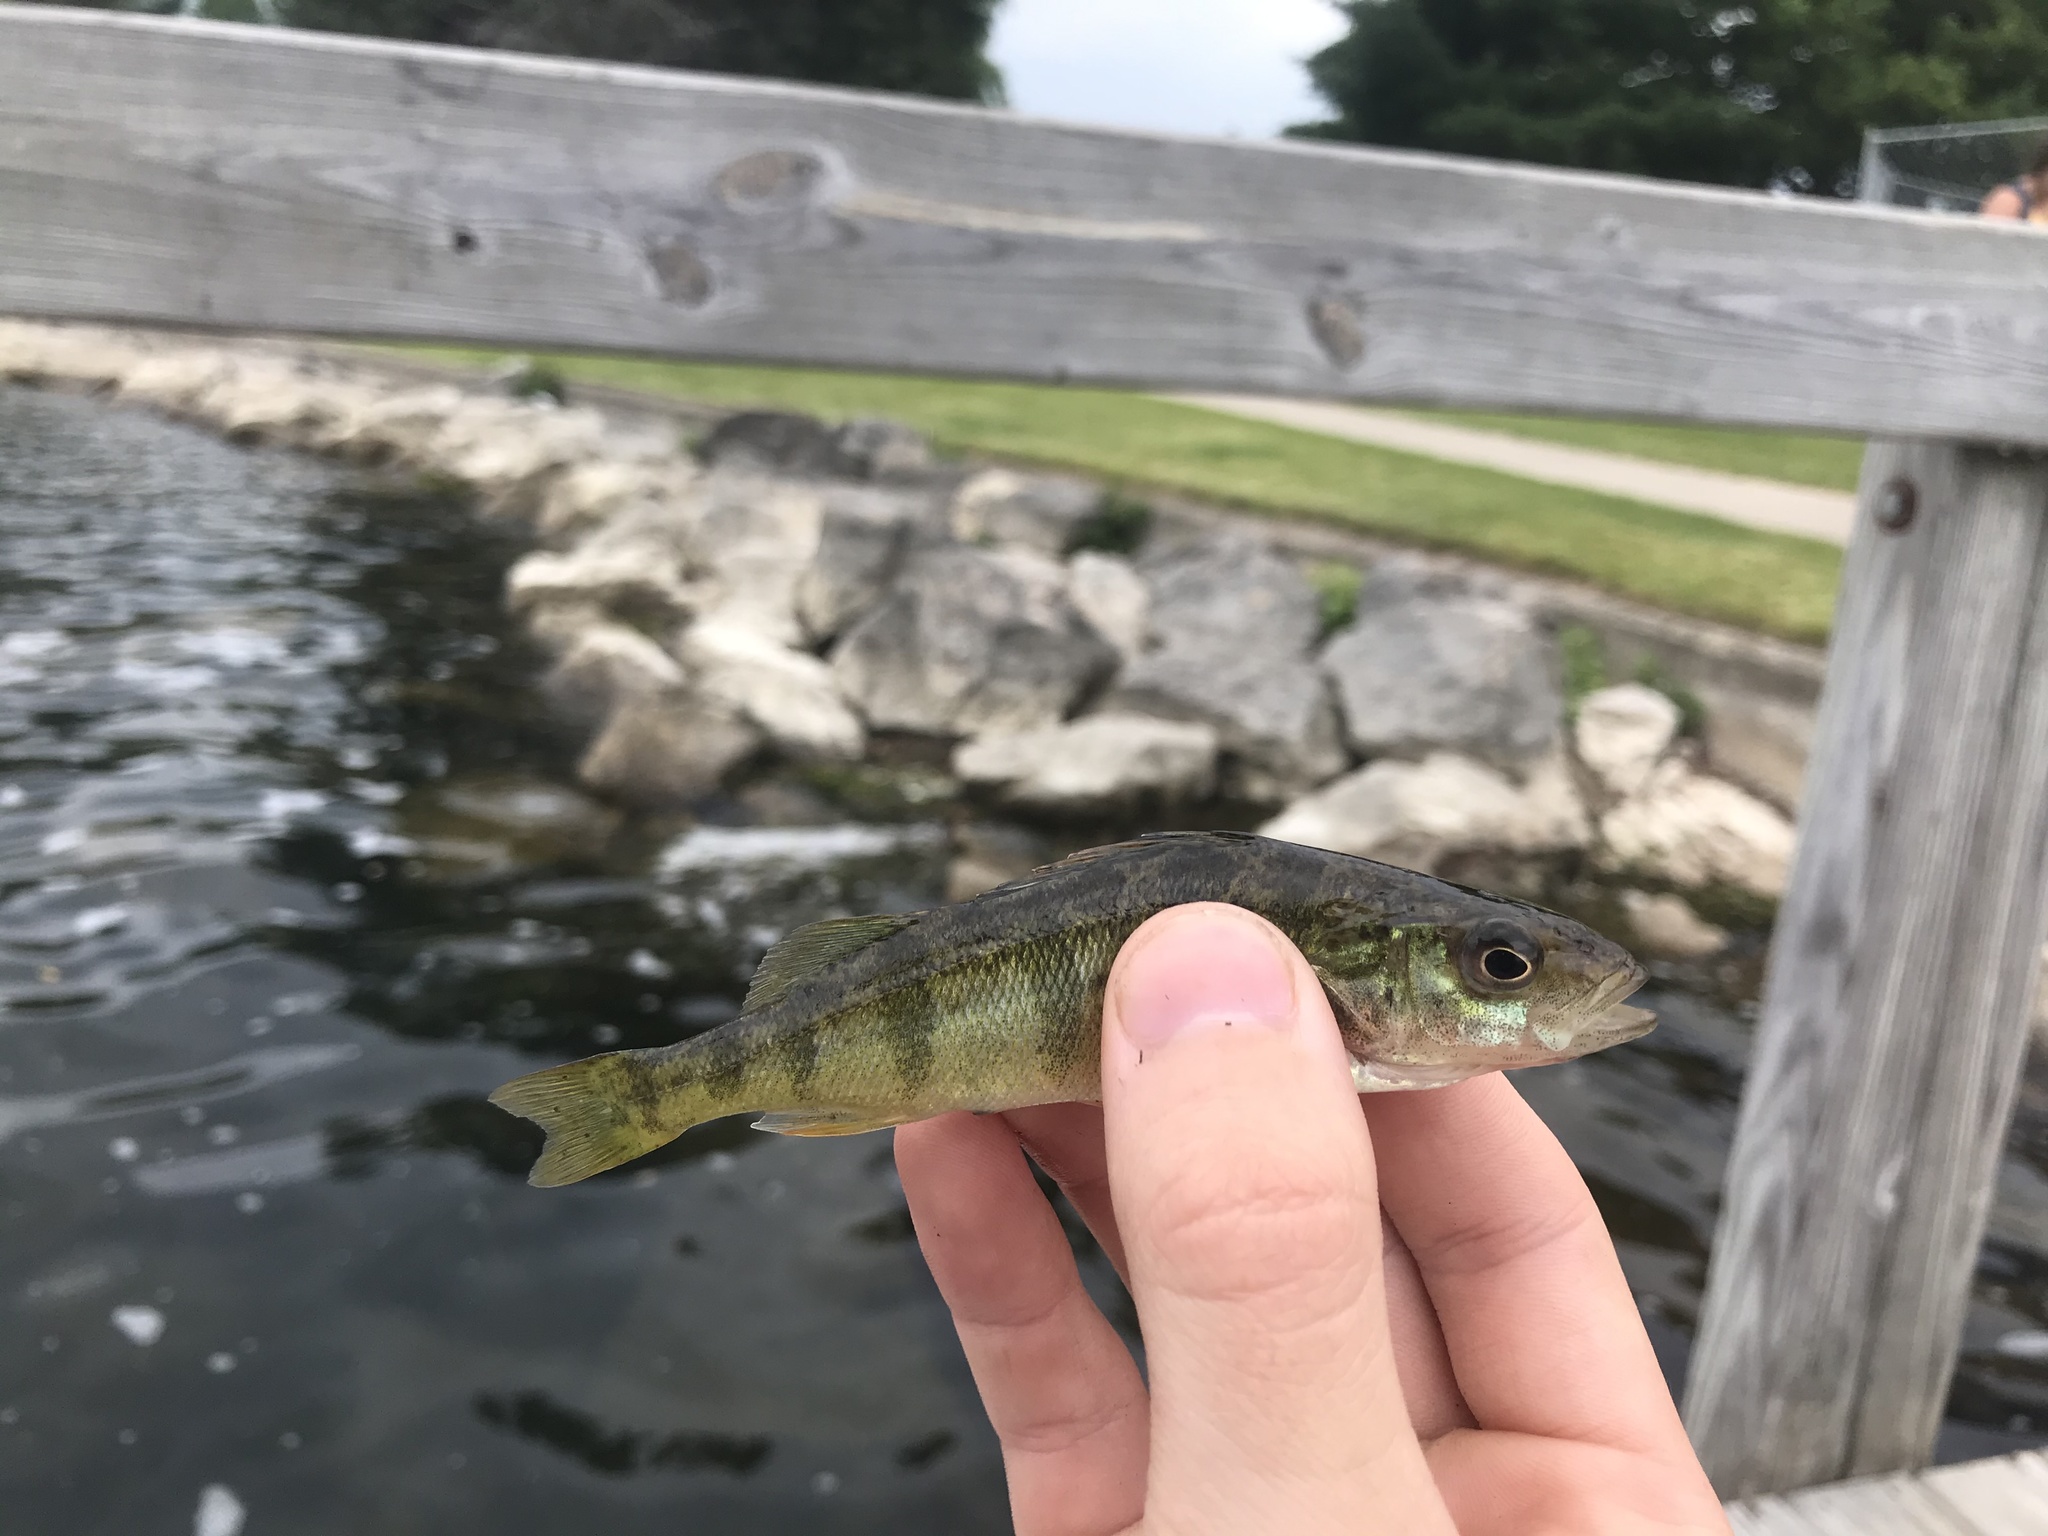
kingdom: Animalia
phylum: Chordata
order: Perciformes
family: Percidae
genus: Perca
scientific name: Perca flavescens
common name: Yellow perch
